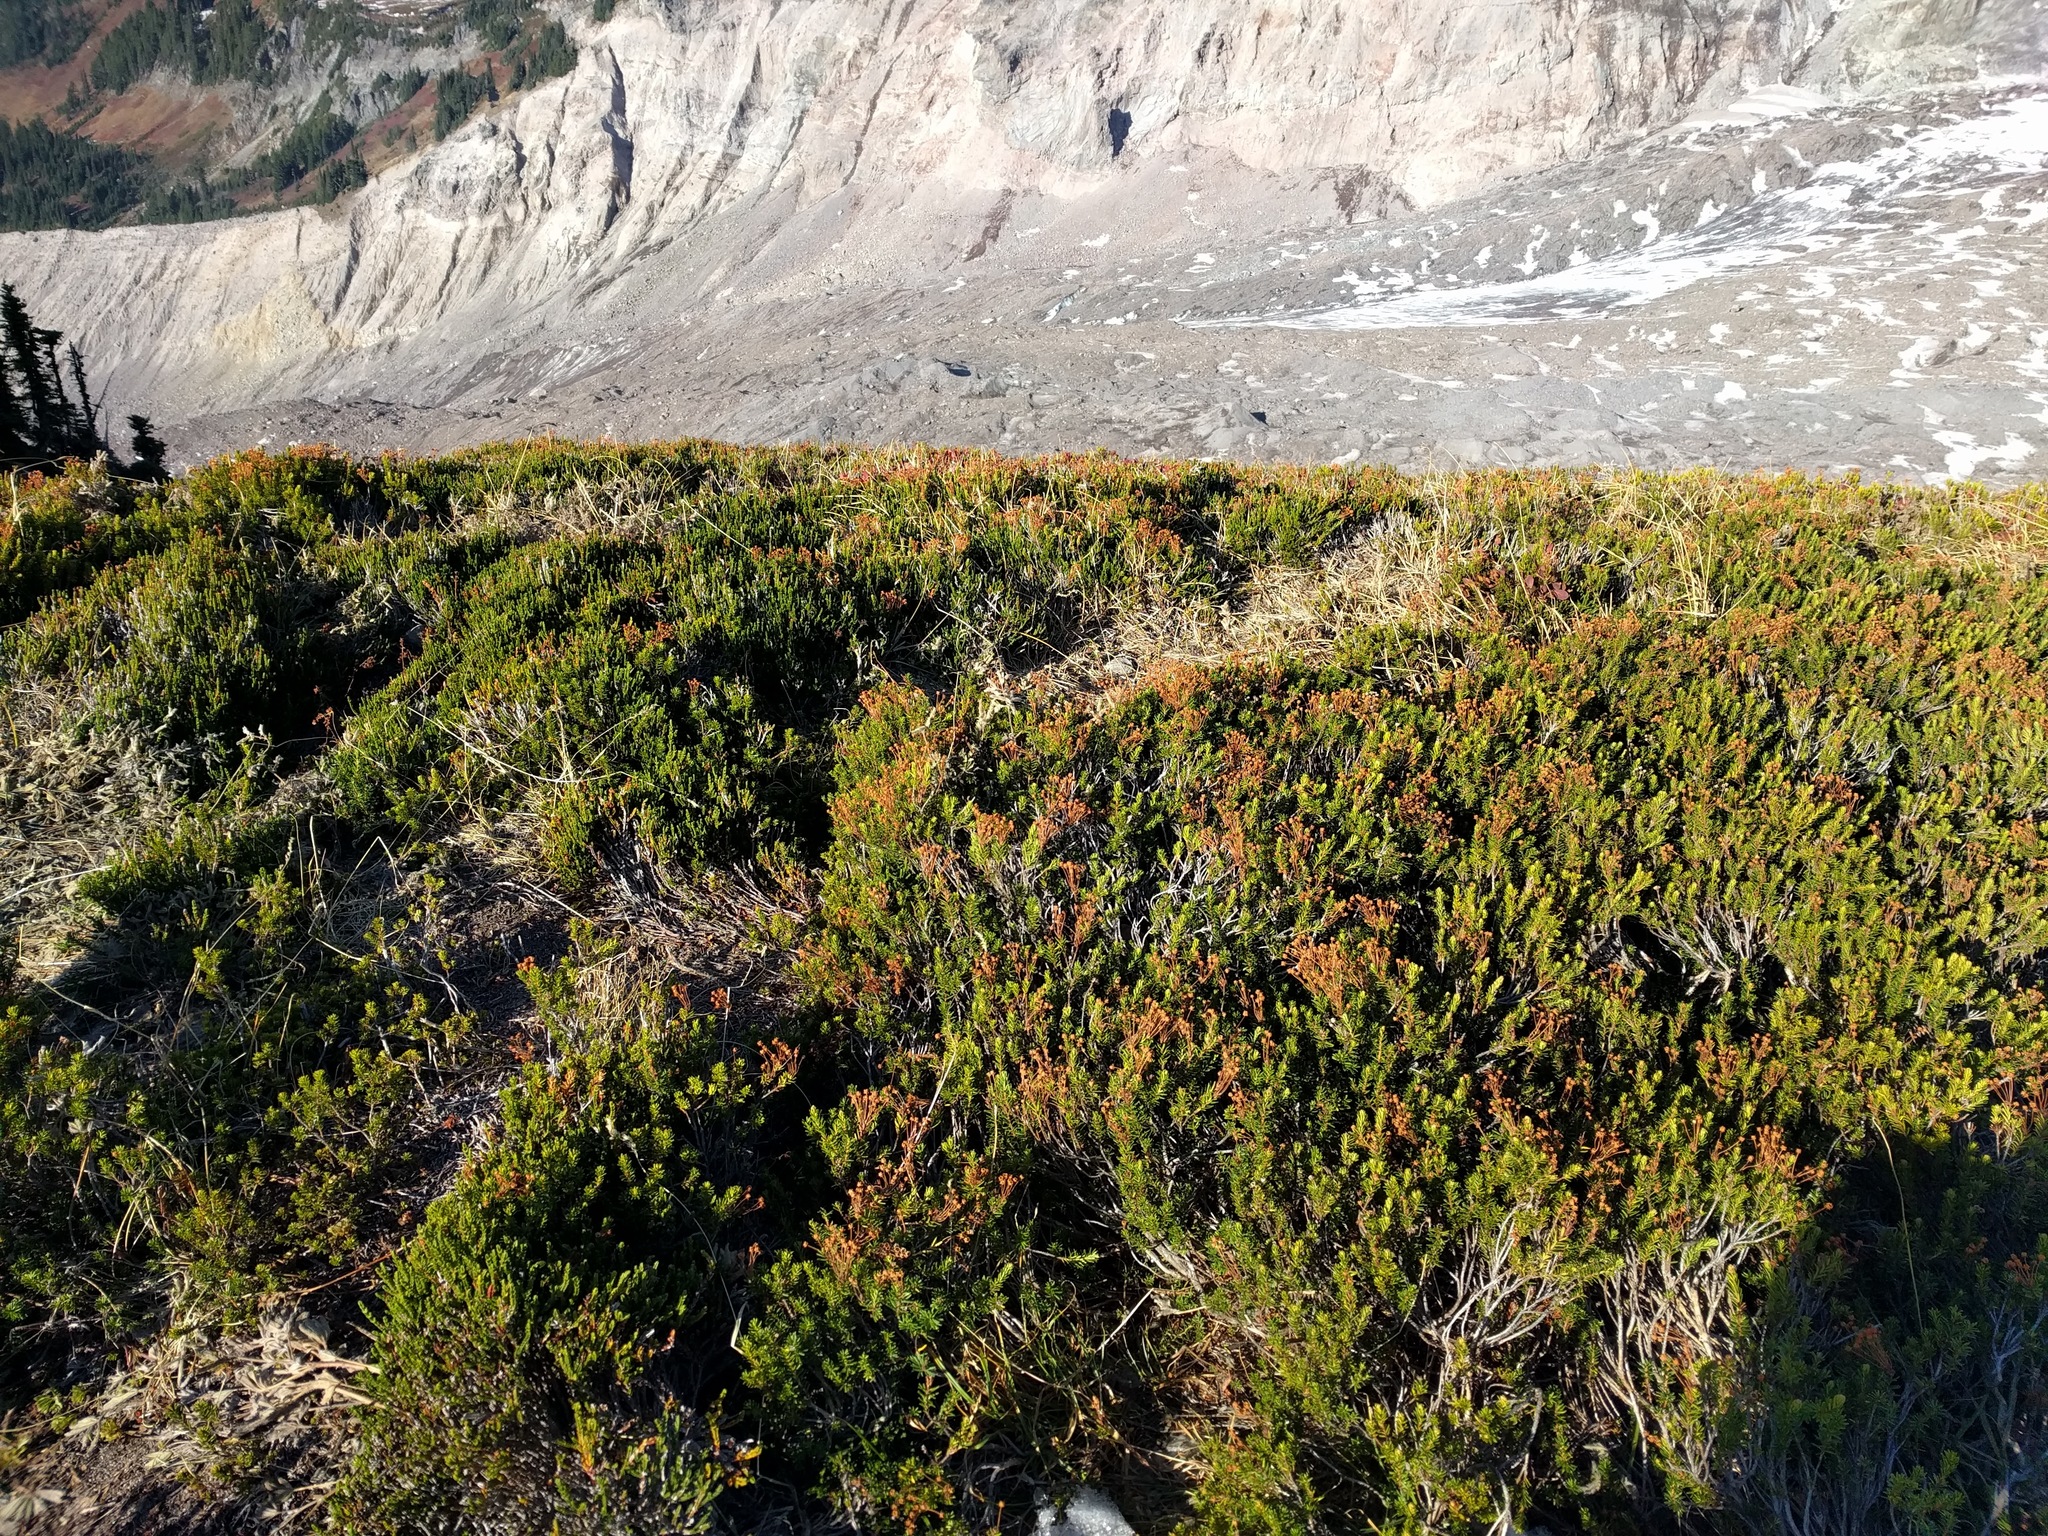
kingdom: Plantae
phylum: Tracheophyta
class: Magnoliopsida
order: Ericales
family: Ericaceae
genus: Phyllodoce
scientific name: Phyllodoce empetriformis
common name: Pink mountain heather
